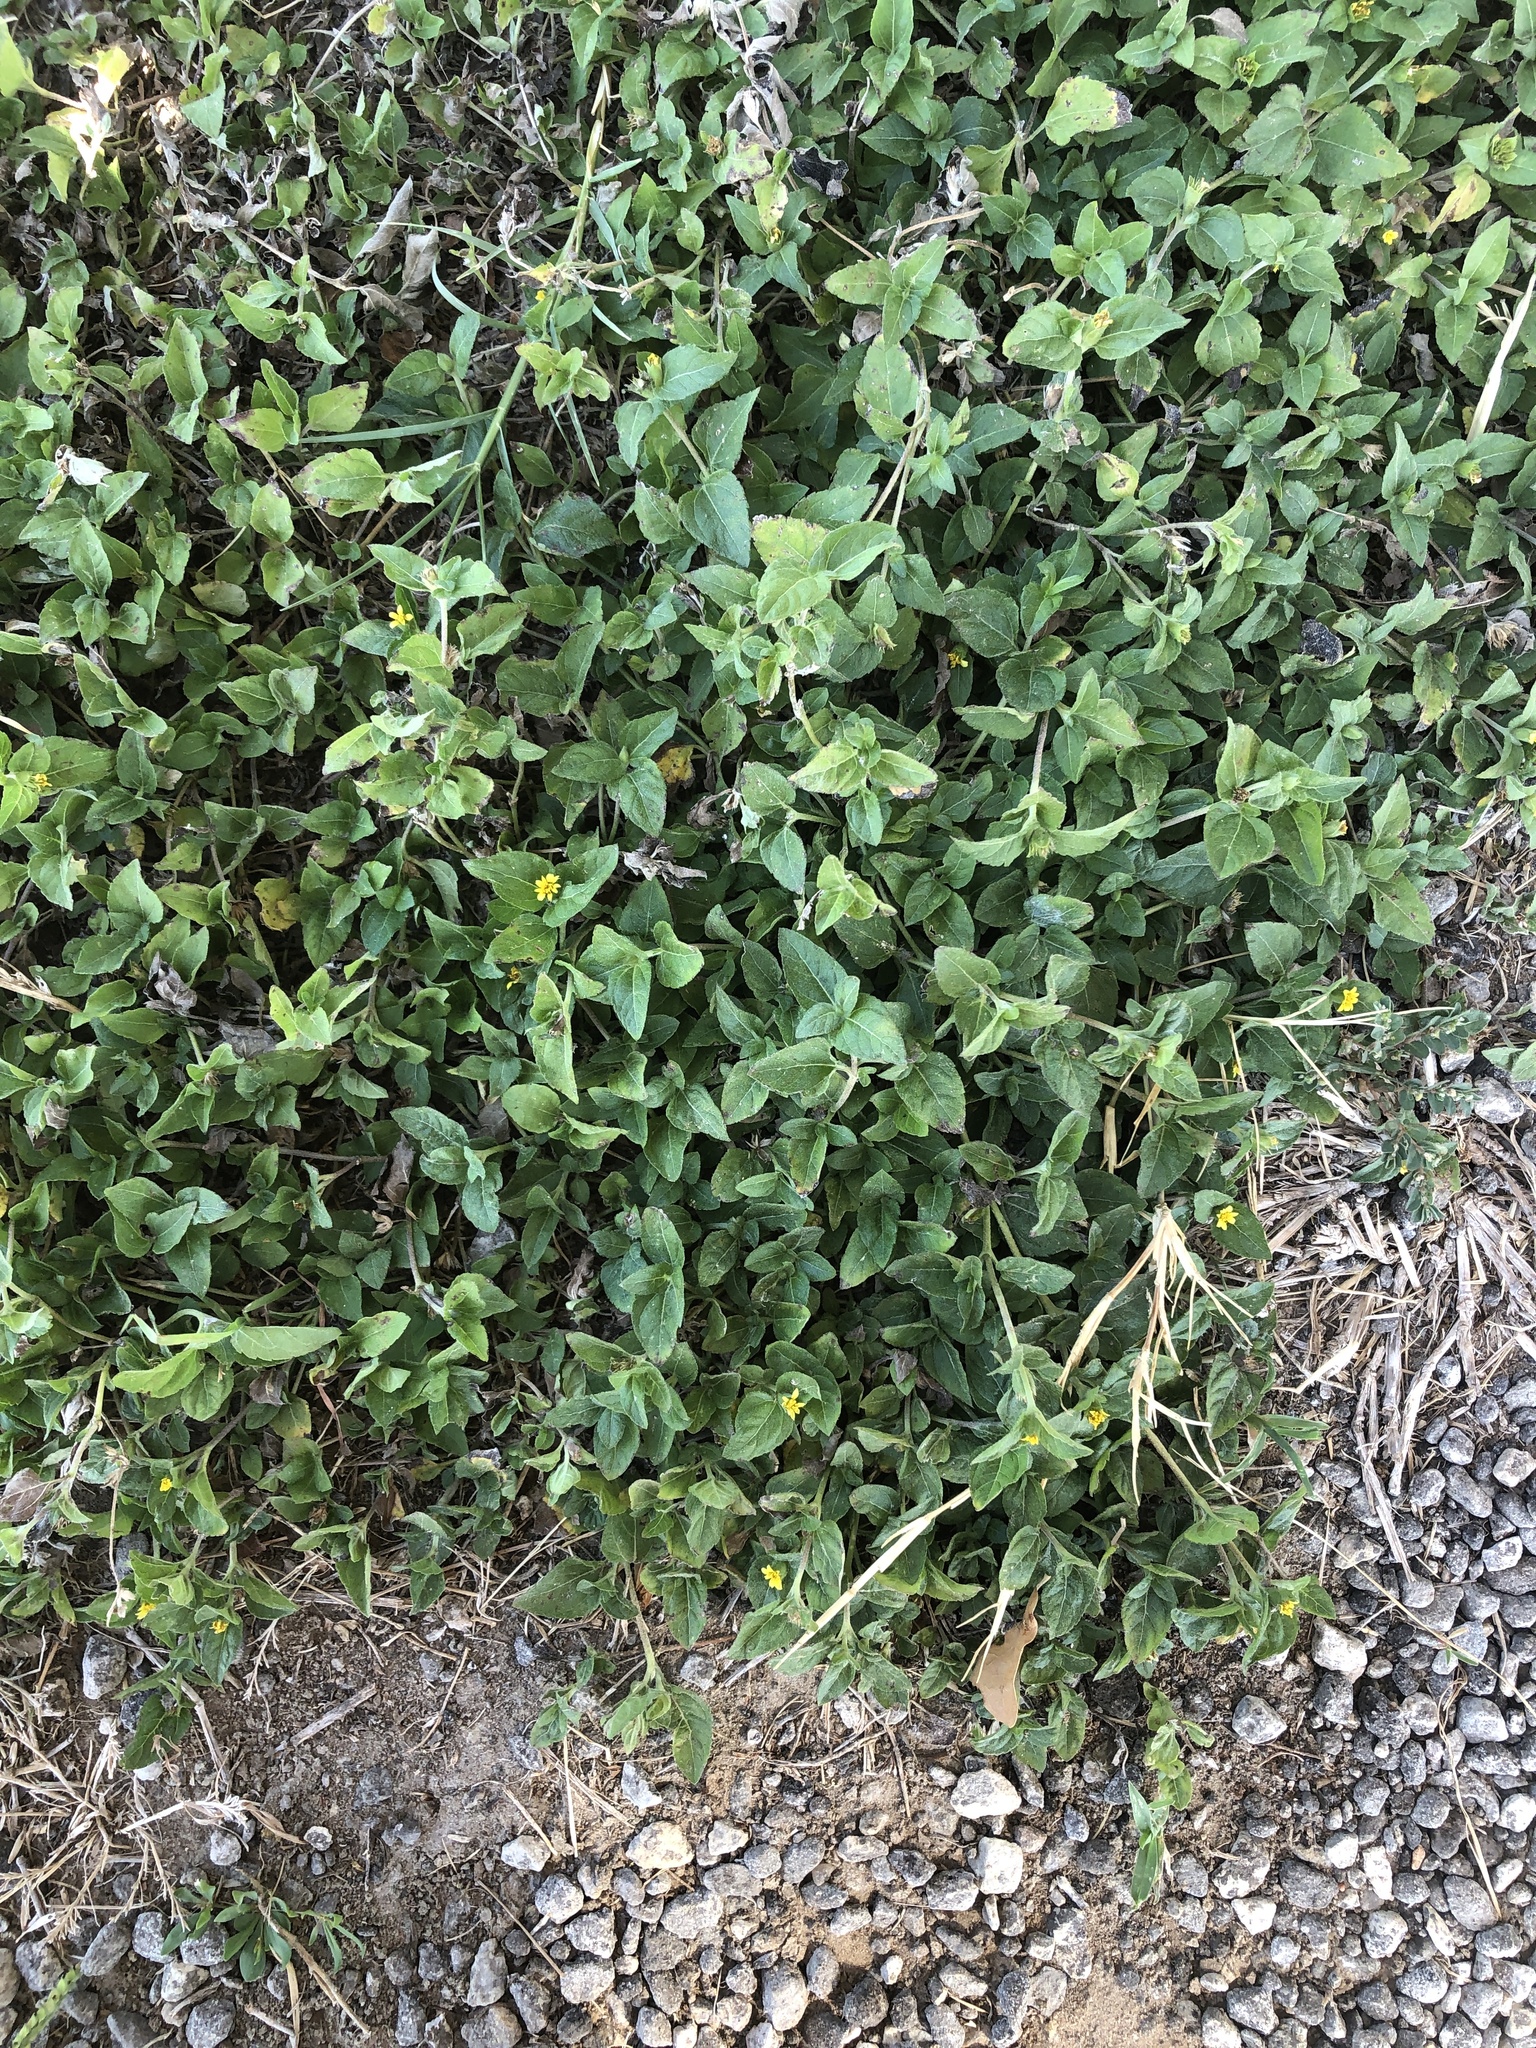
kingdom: Plantae
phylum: Tracheophyta
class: Magnoliopsida
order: Asterales
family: Asteraceae
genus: Calyptocarpus
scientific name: Calyptocarpus vialis
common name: Straggler daisy
